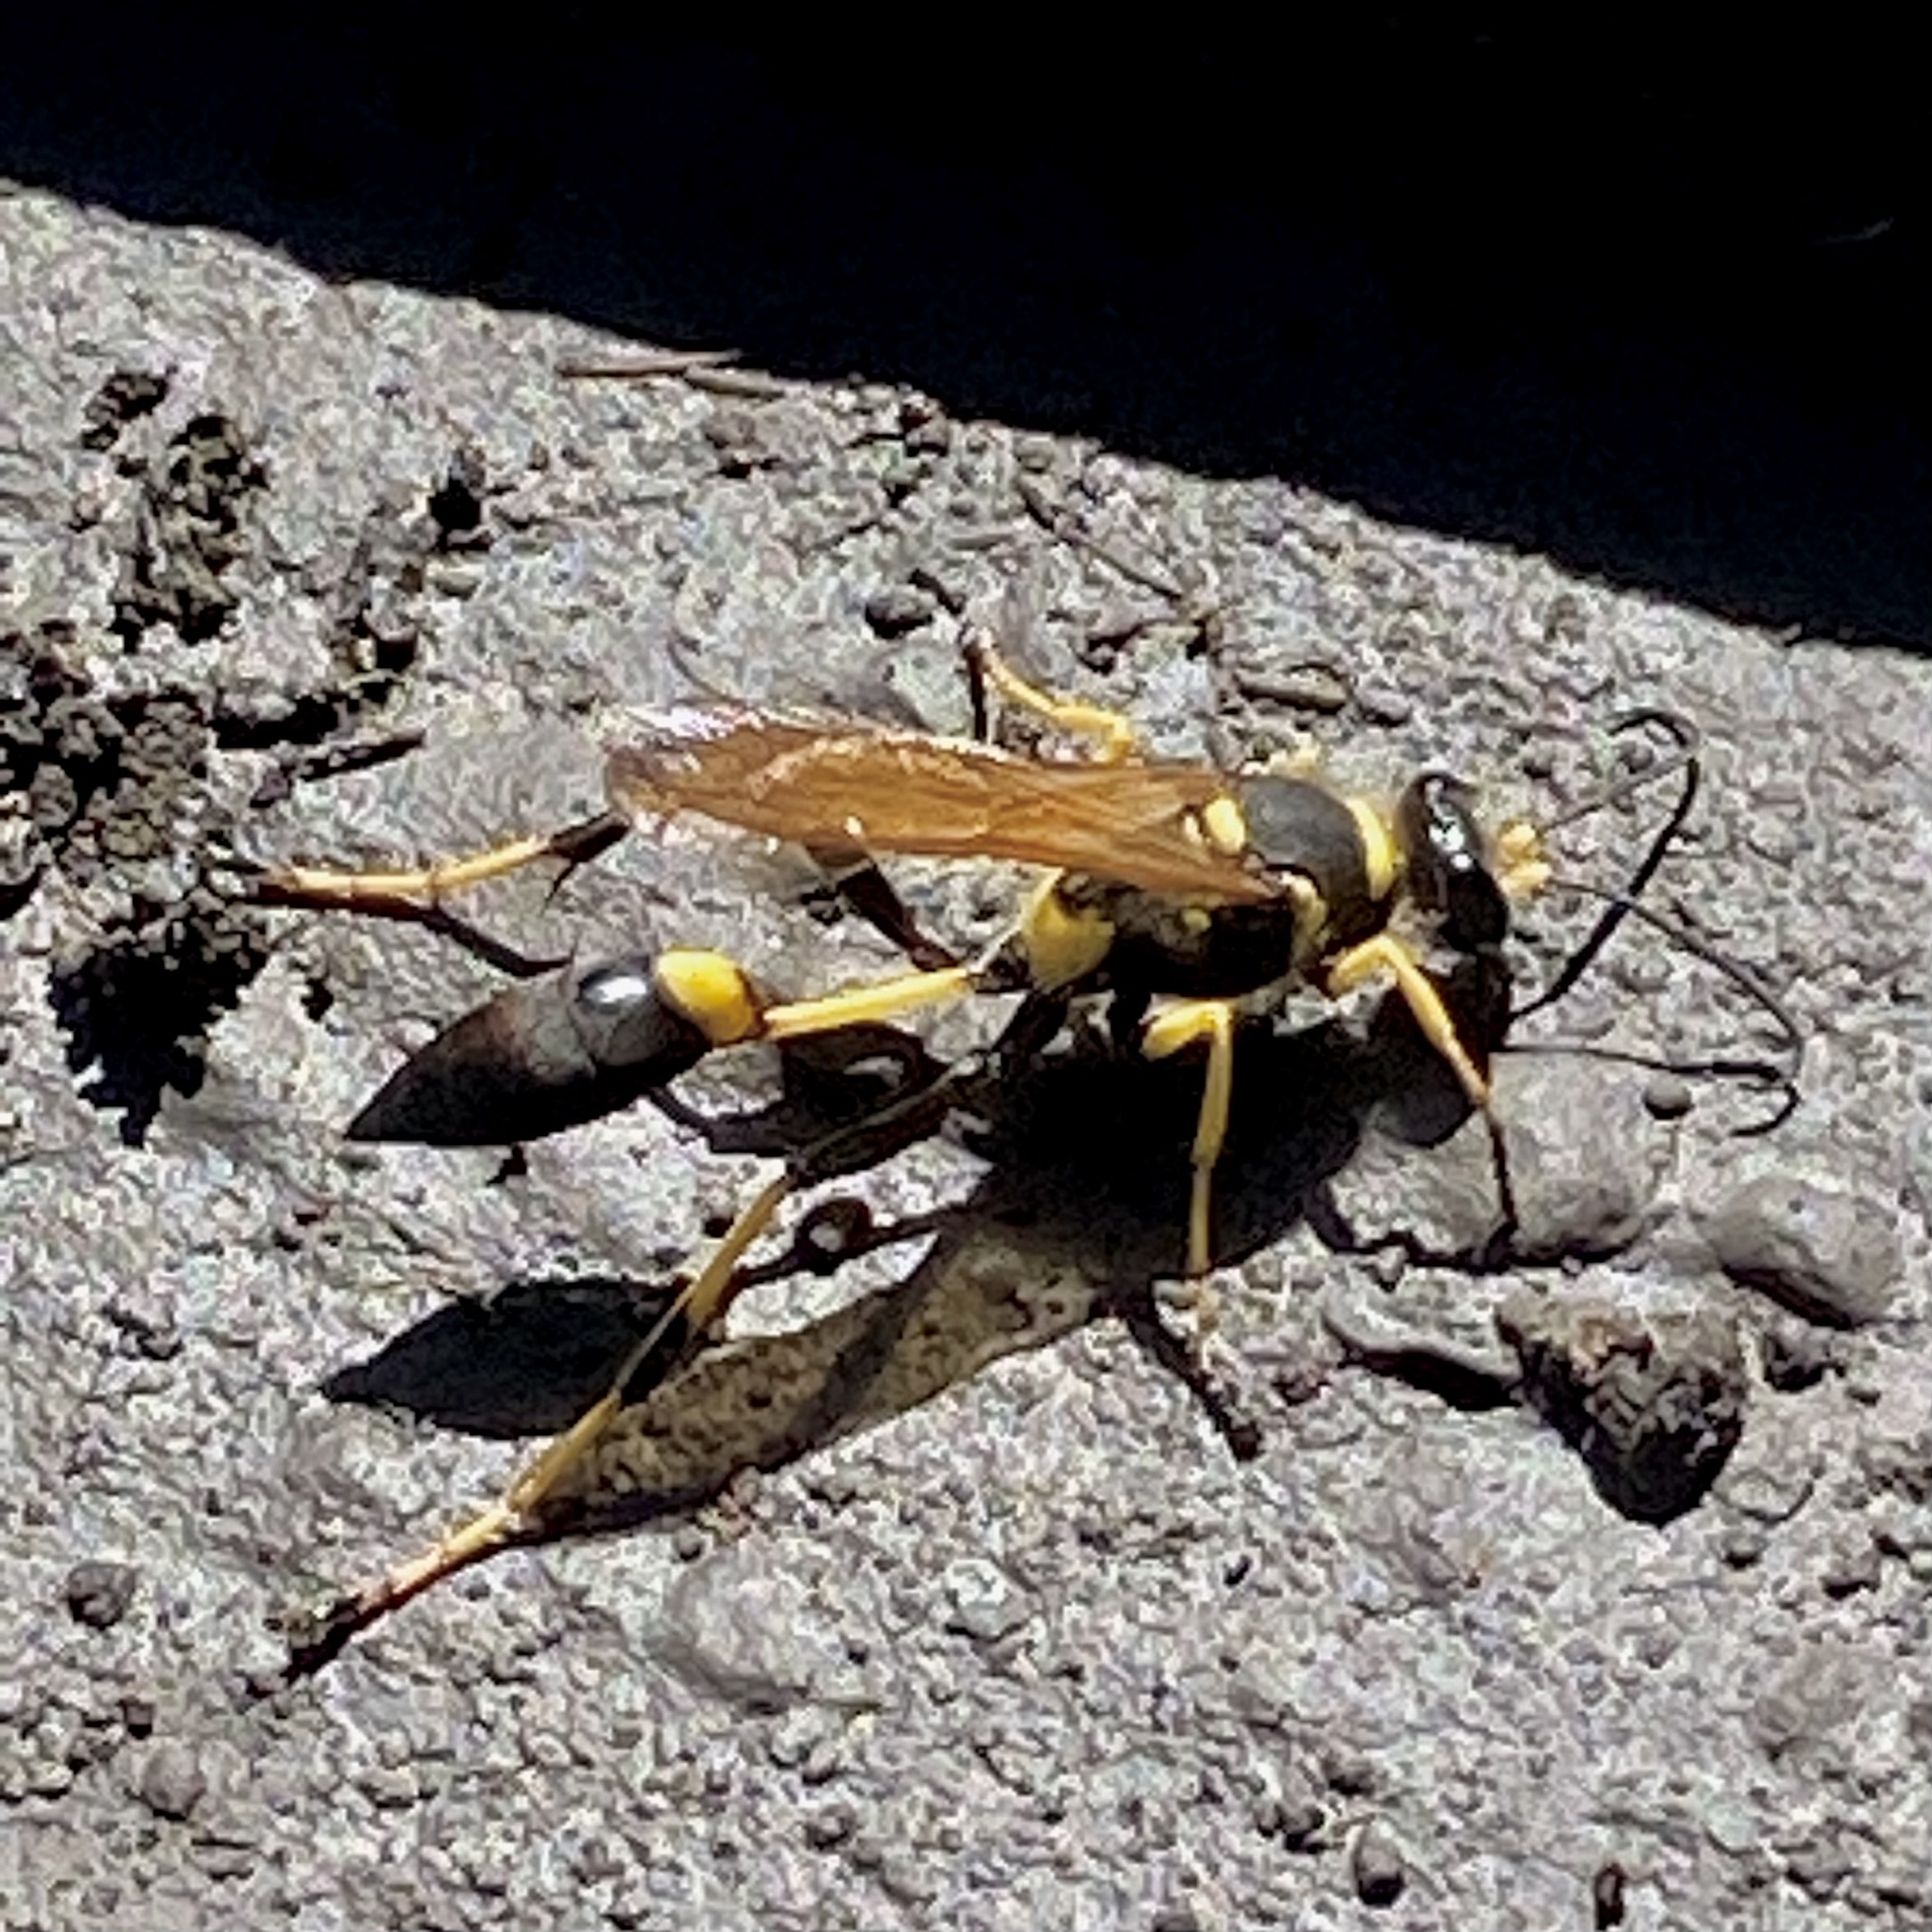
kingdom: Animalia
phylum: Arthropoda
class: Insecta
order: Hymenoptera
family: Sphecidae
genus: Sceliphron
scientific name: Sceliphron caementarium
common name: Mud dauber
